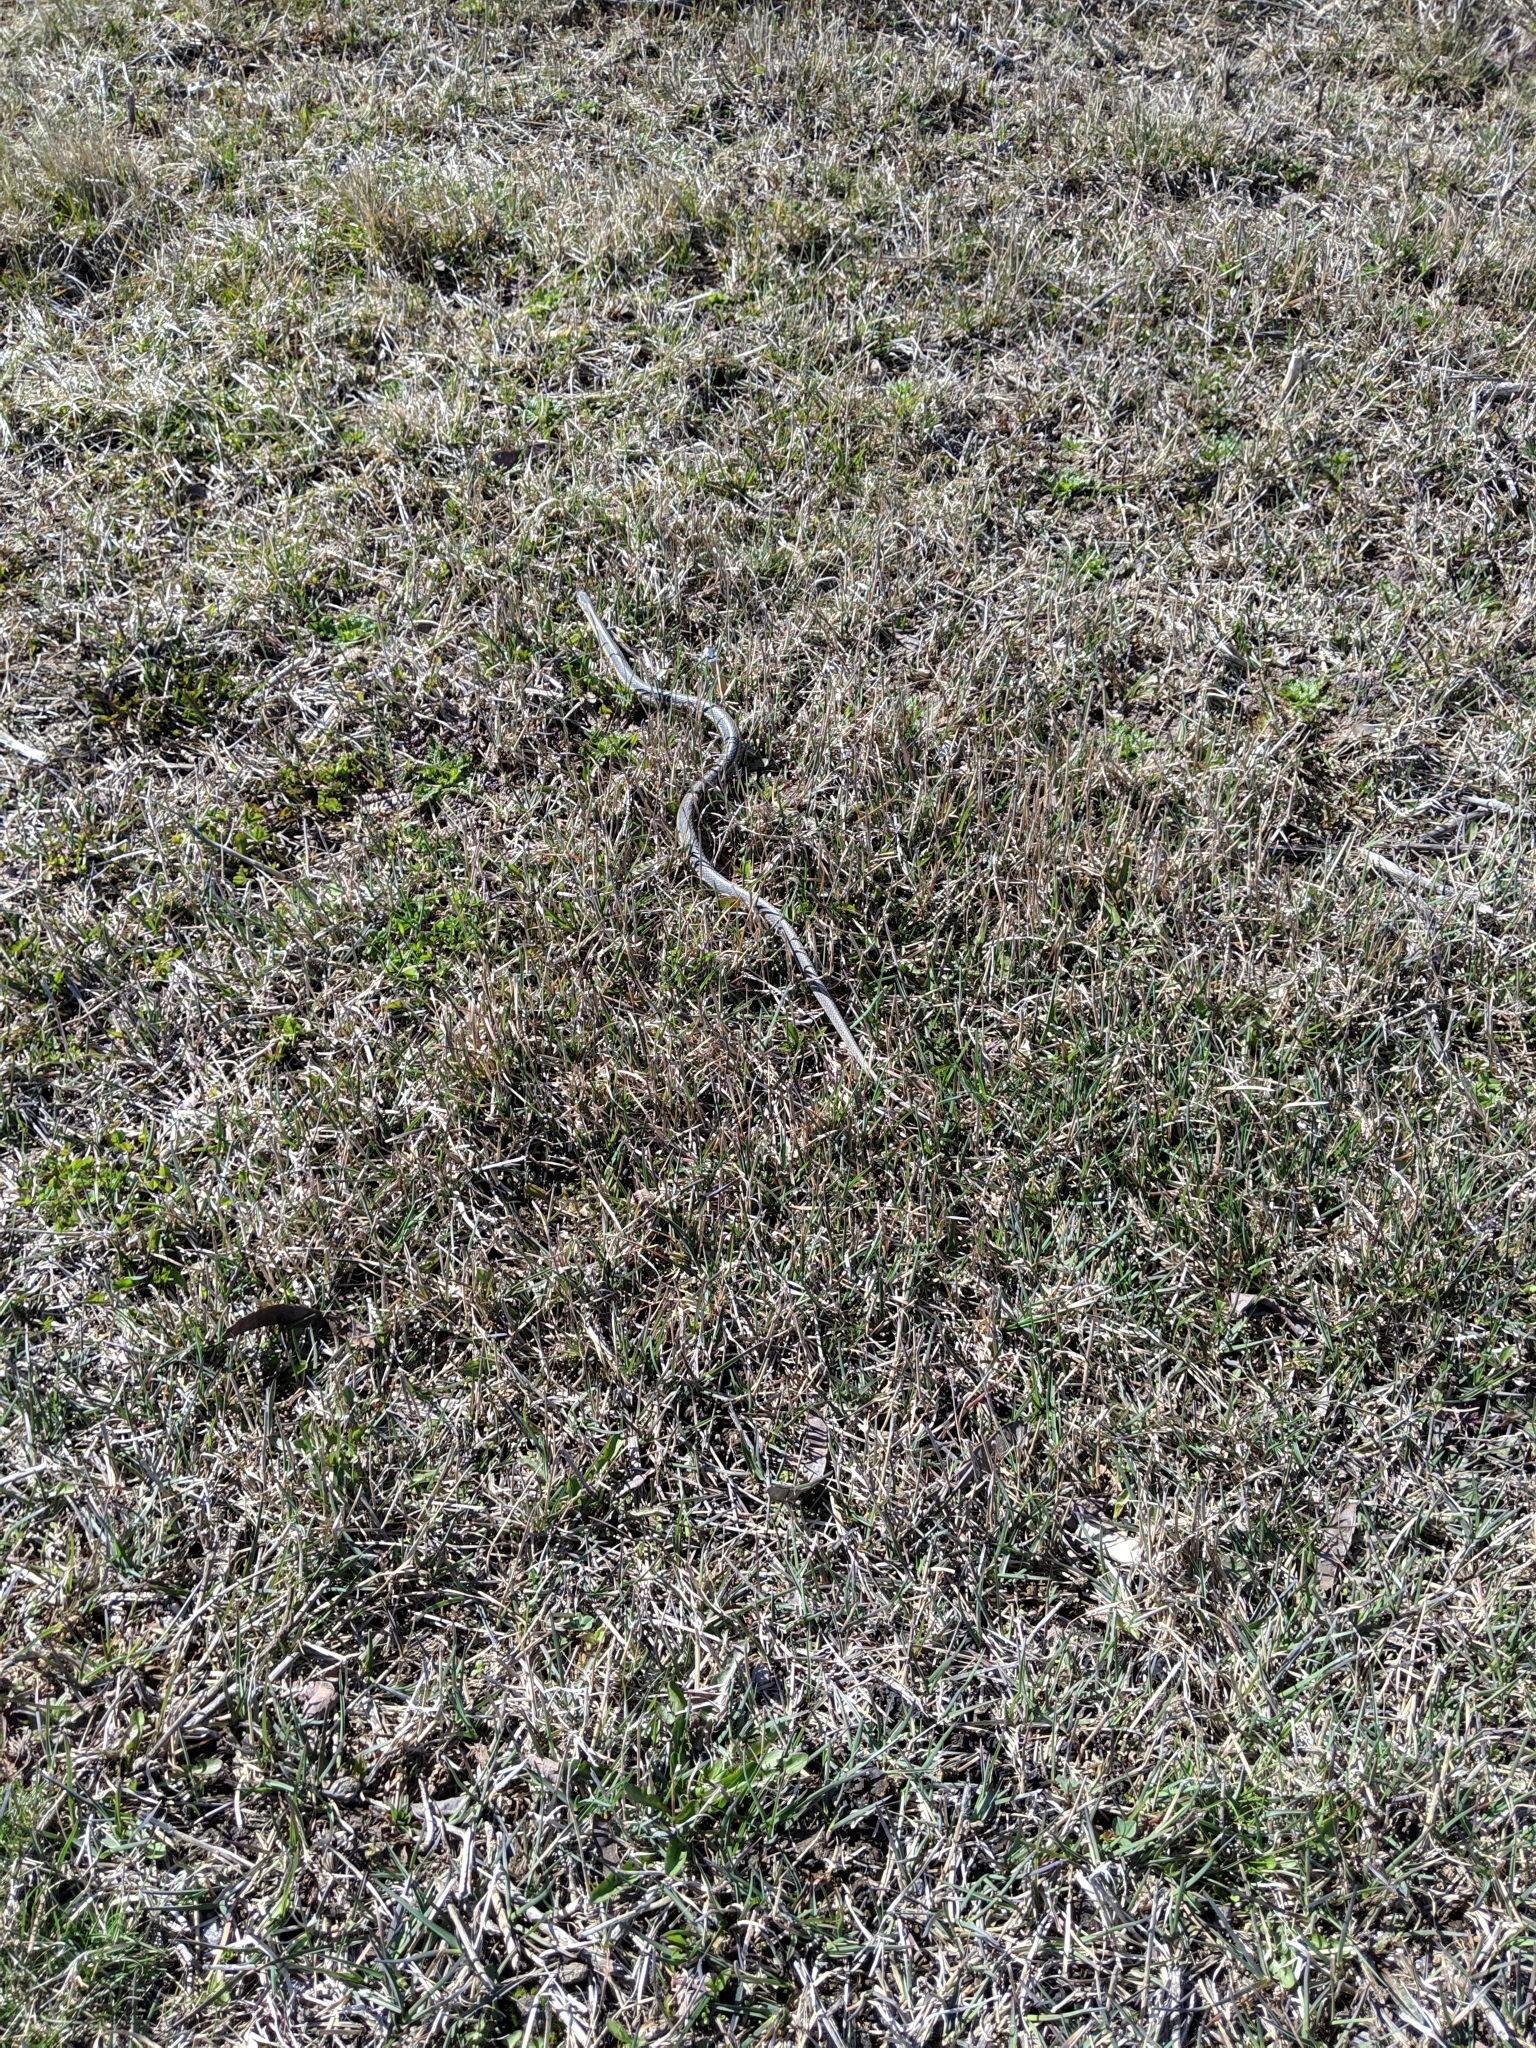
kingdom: Animalia
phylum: Chordata
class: Squamata
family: Colubridae
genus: Thamnophis
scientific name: Thamnophis sirtalis
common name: Common garter snake
